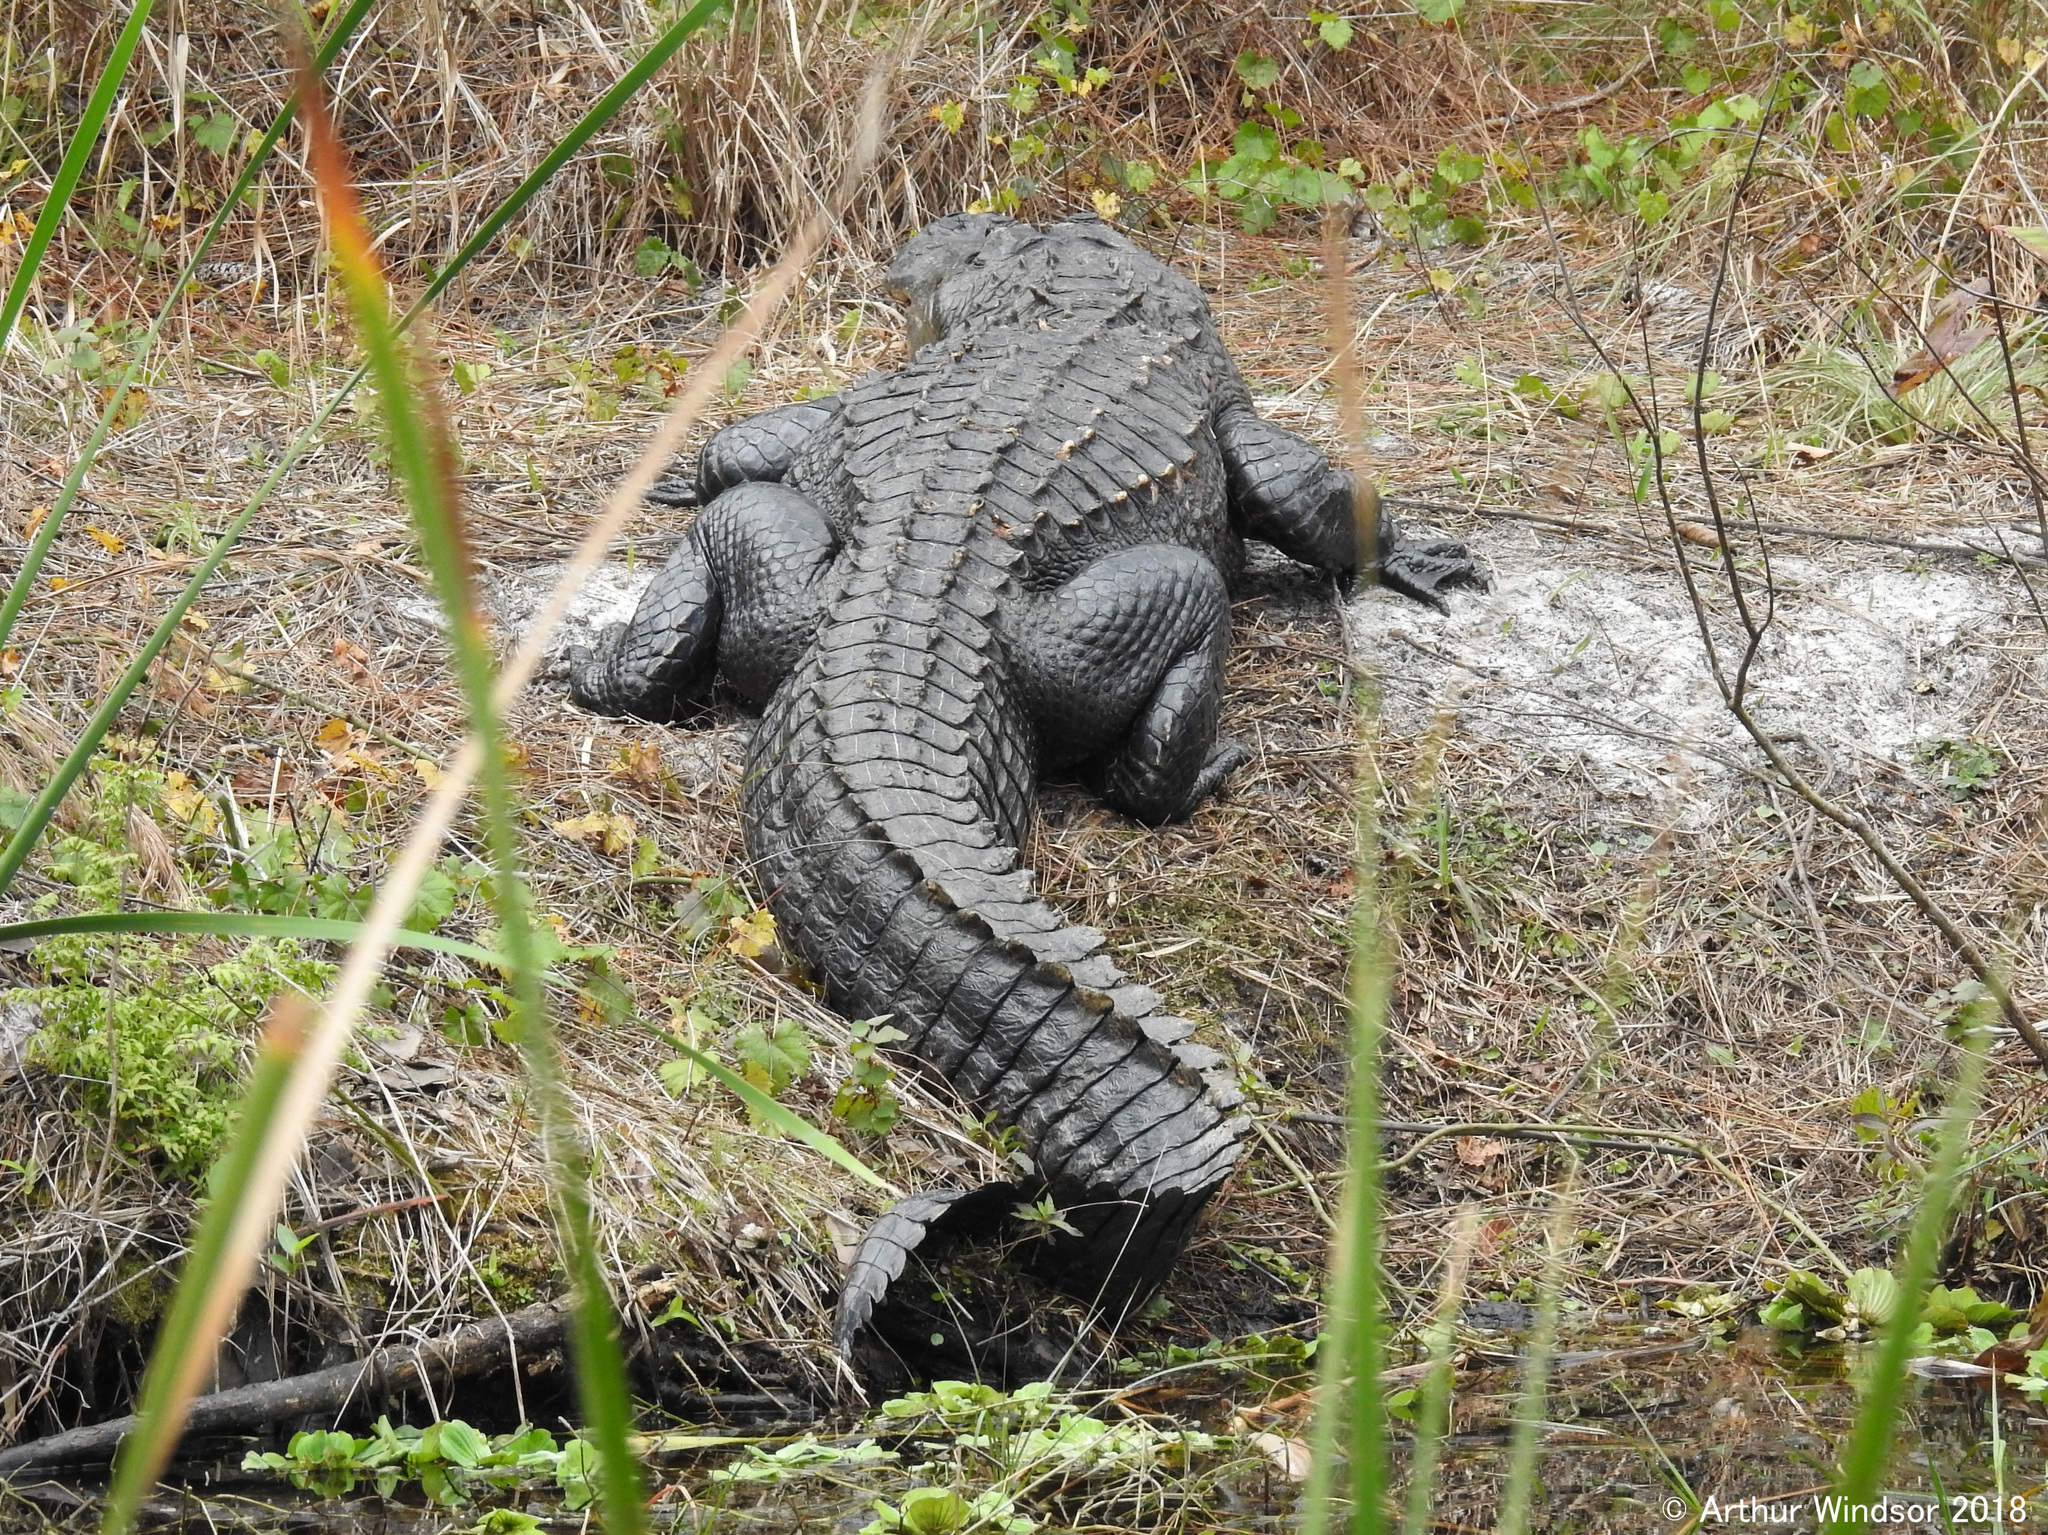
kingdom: Animalia
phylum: Chordata
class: Crocodylia
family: Alligatoridae
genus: Alligator
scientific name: Alligator mississippiensis
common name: American alligator
